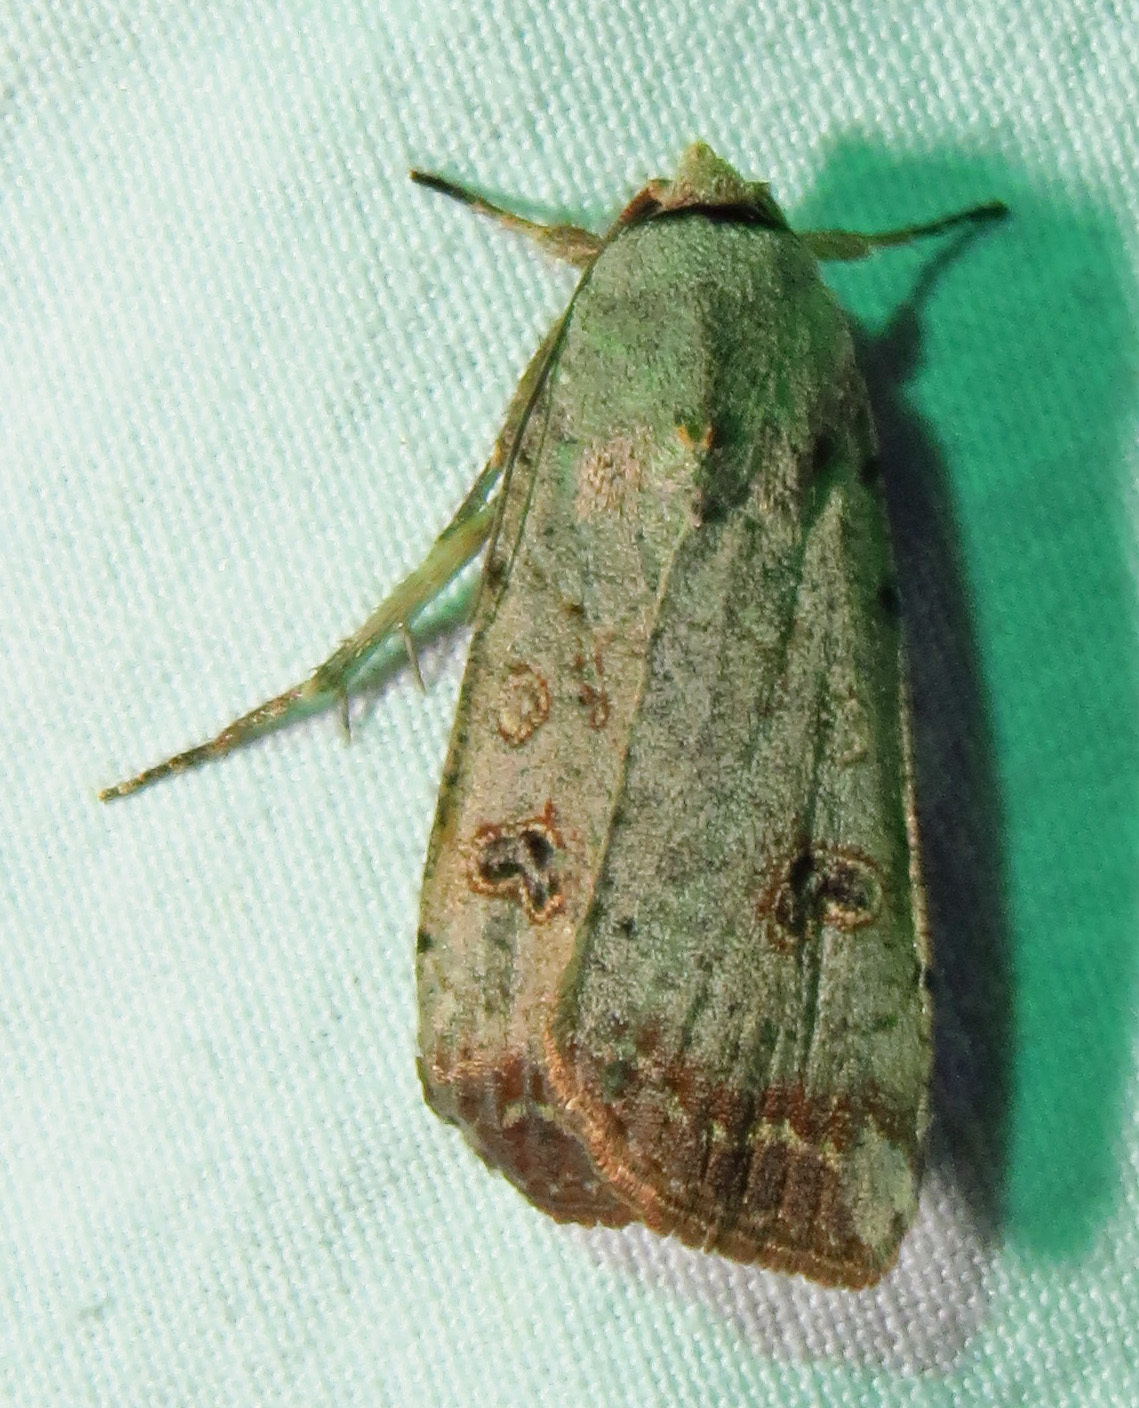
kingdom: Animalia
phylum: Arthropoda
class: Insecta
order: Lepidoptera
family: Noctuidae
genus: Anicla
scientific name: Anicla infecta
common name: Green cutworm
